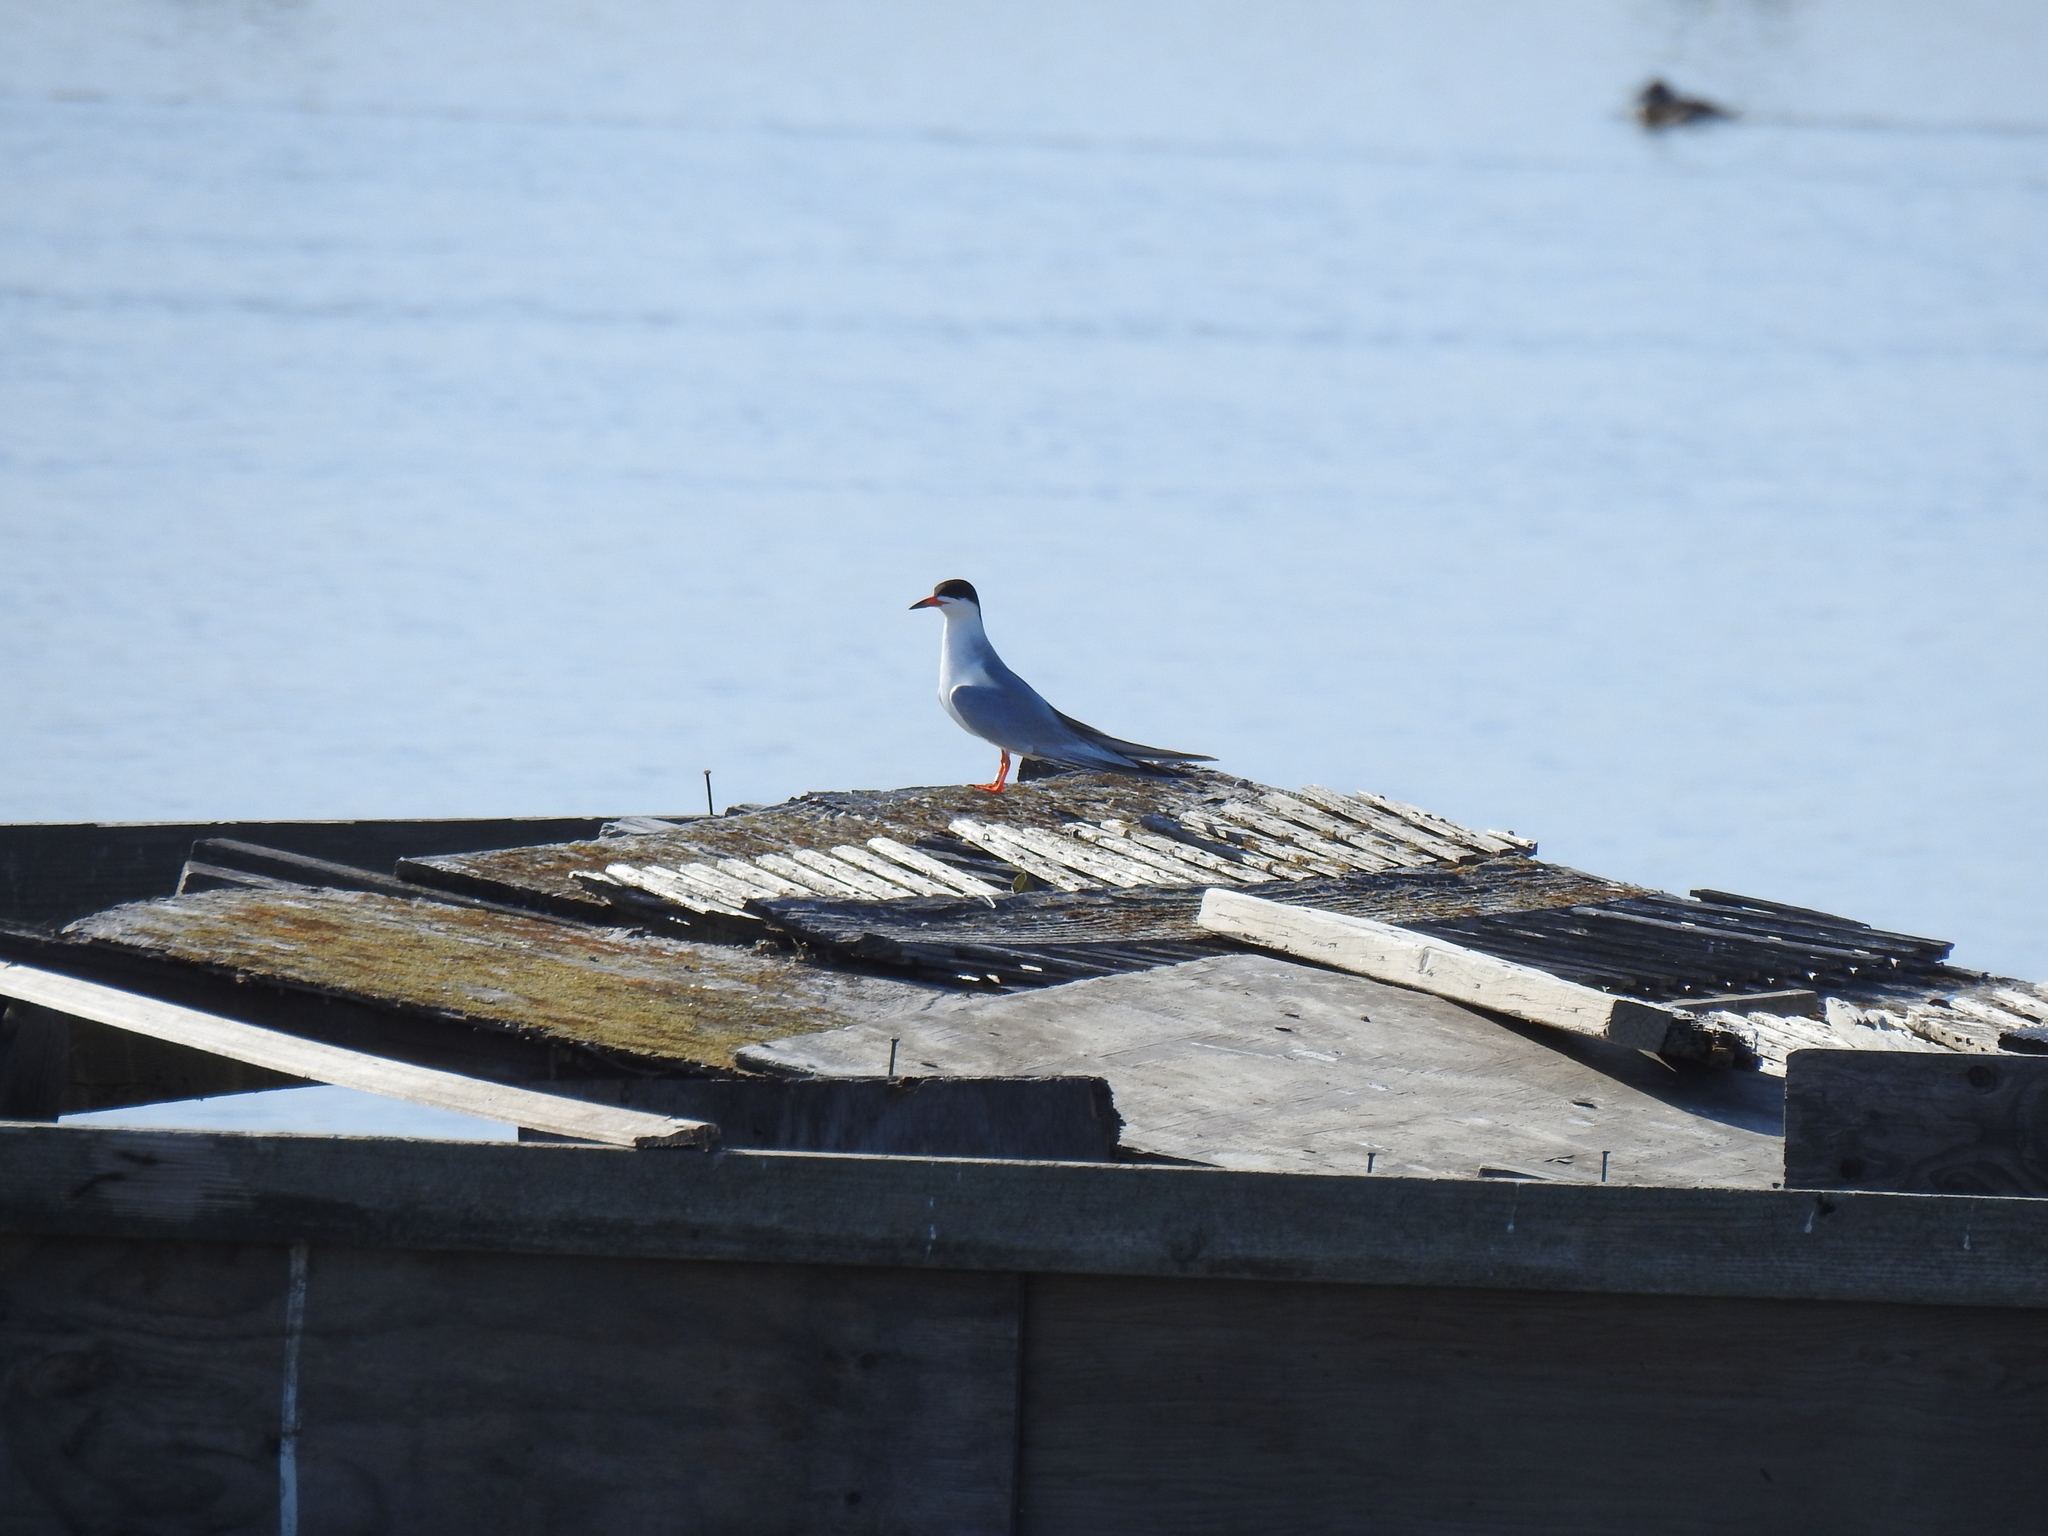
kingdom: Animalia
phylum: Chordata
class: Aves
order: Charadriiformes
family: Laridae
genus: Sterna
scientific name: Sterna forsteri
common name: Forster's tern
